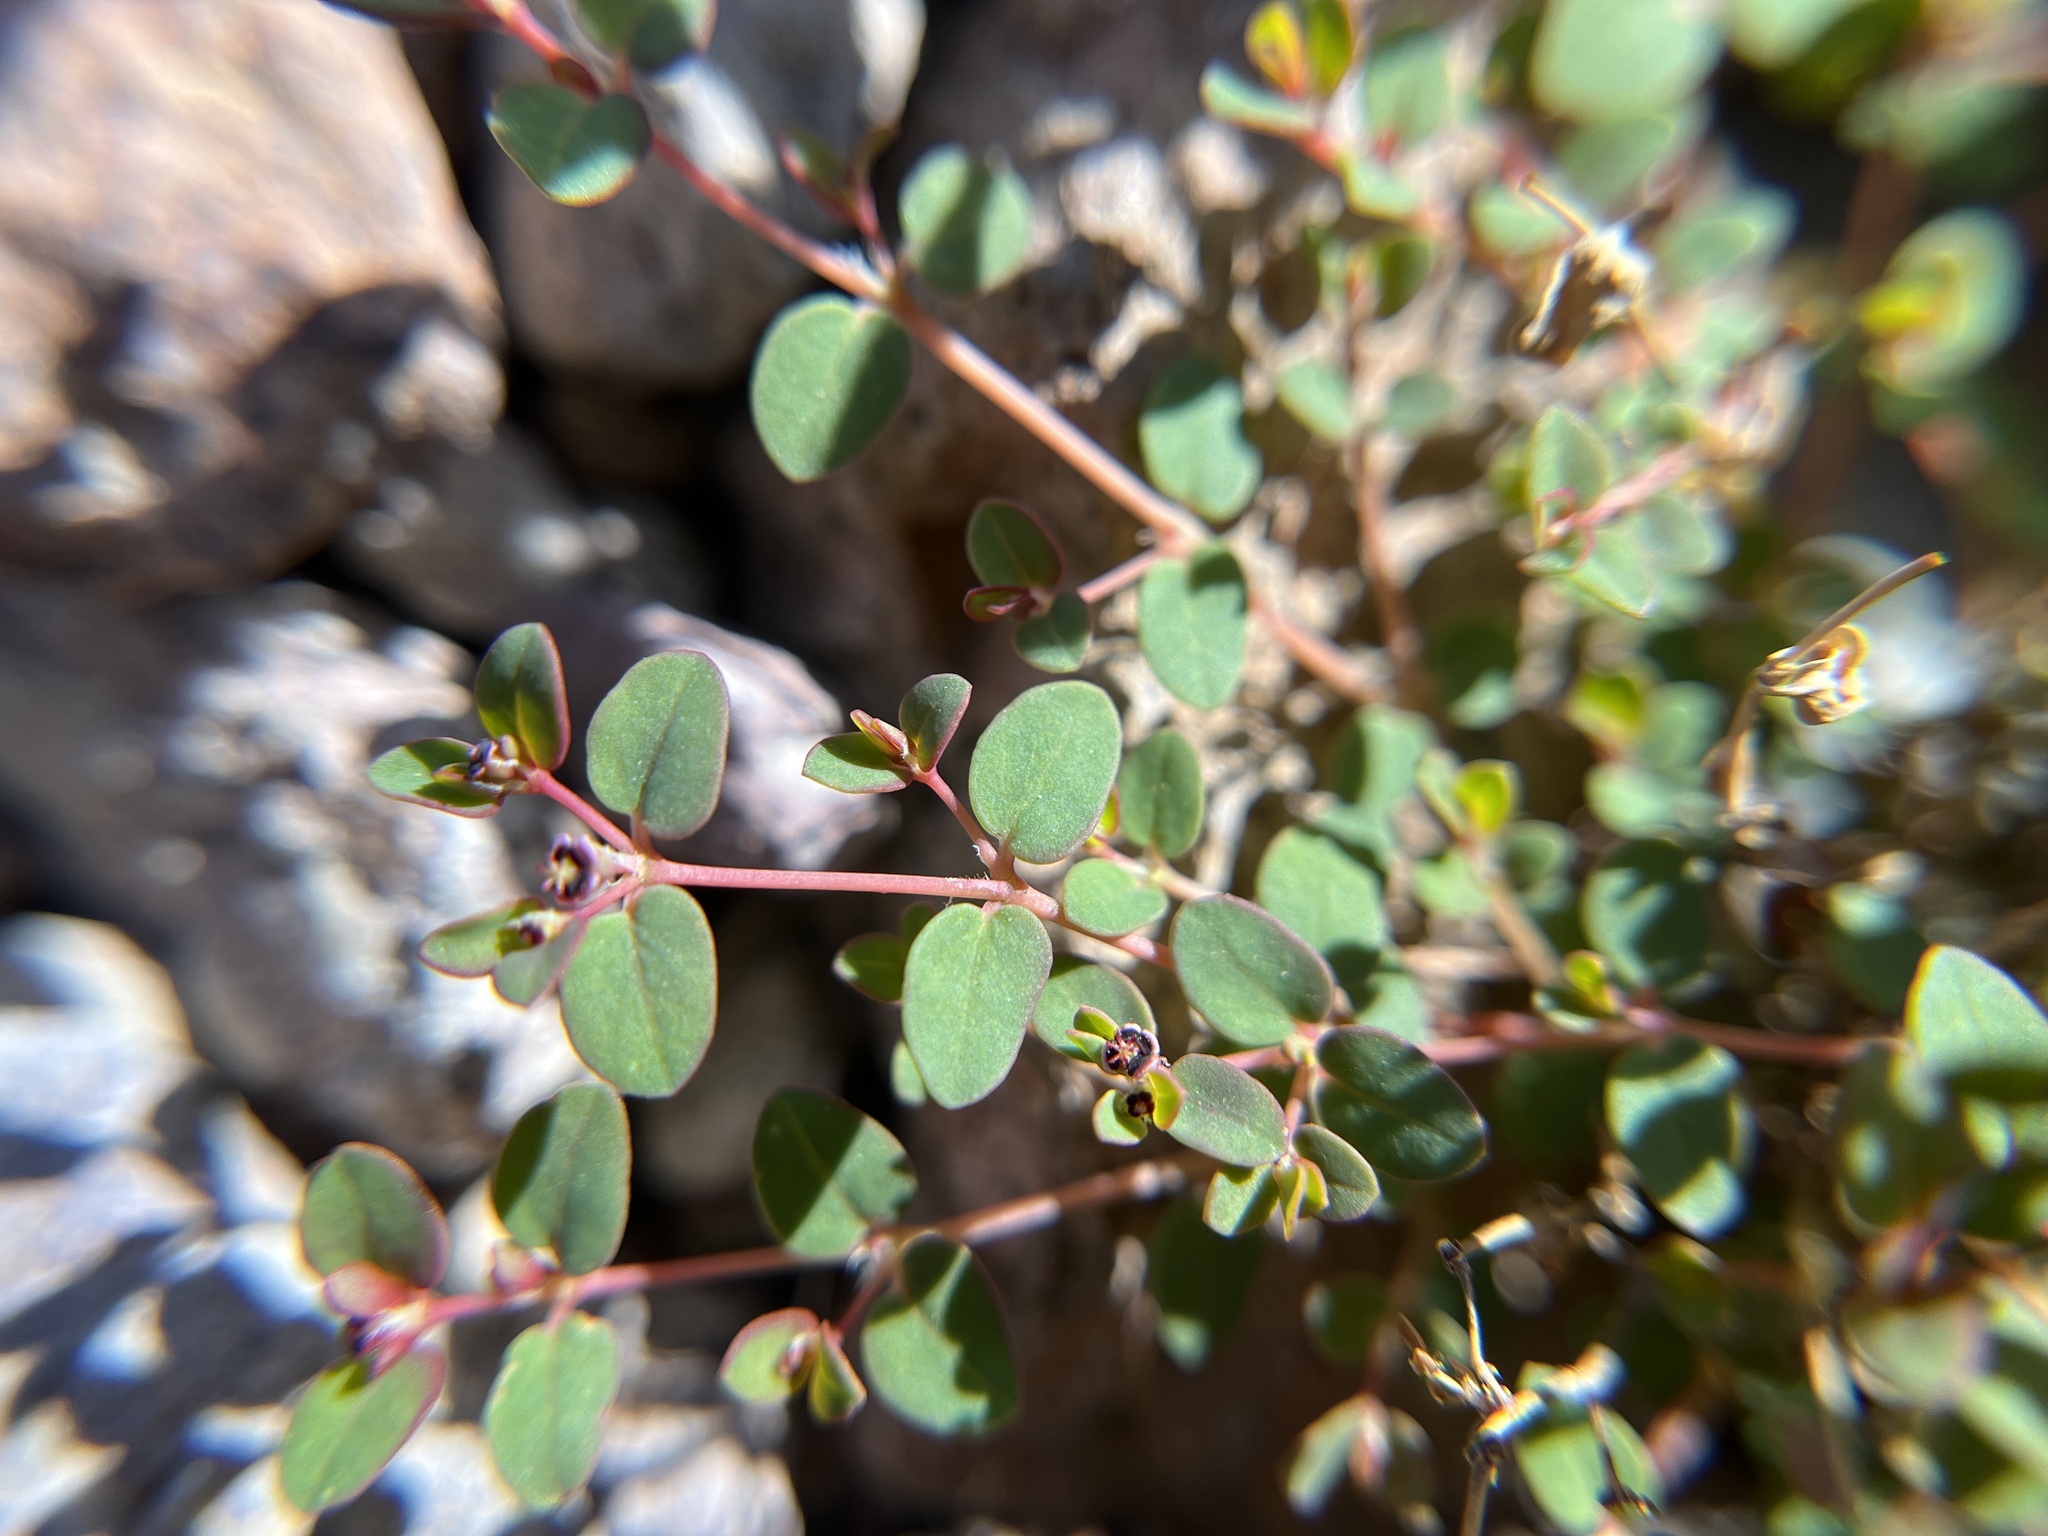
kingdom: Plantae
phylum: Tracheophyta
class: Magnoliopsida
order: Malpighiales
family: Euphorbiaceae
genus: Euphorbia
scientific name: Euphorbia polycarpa
